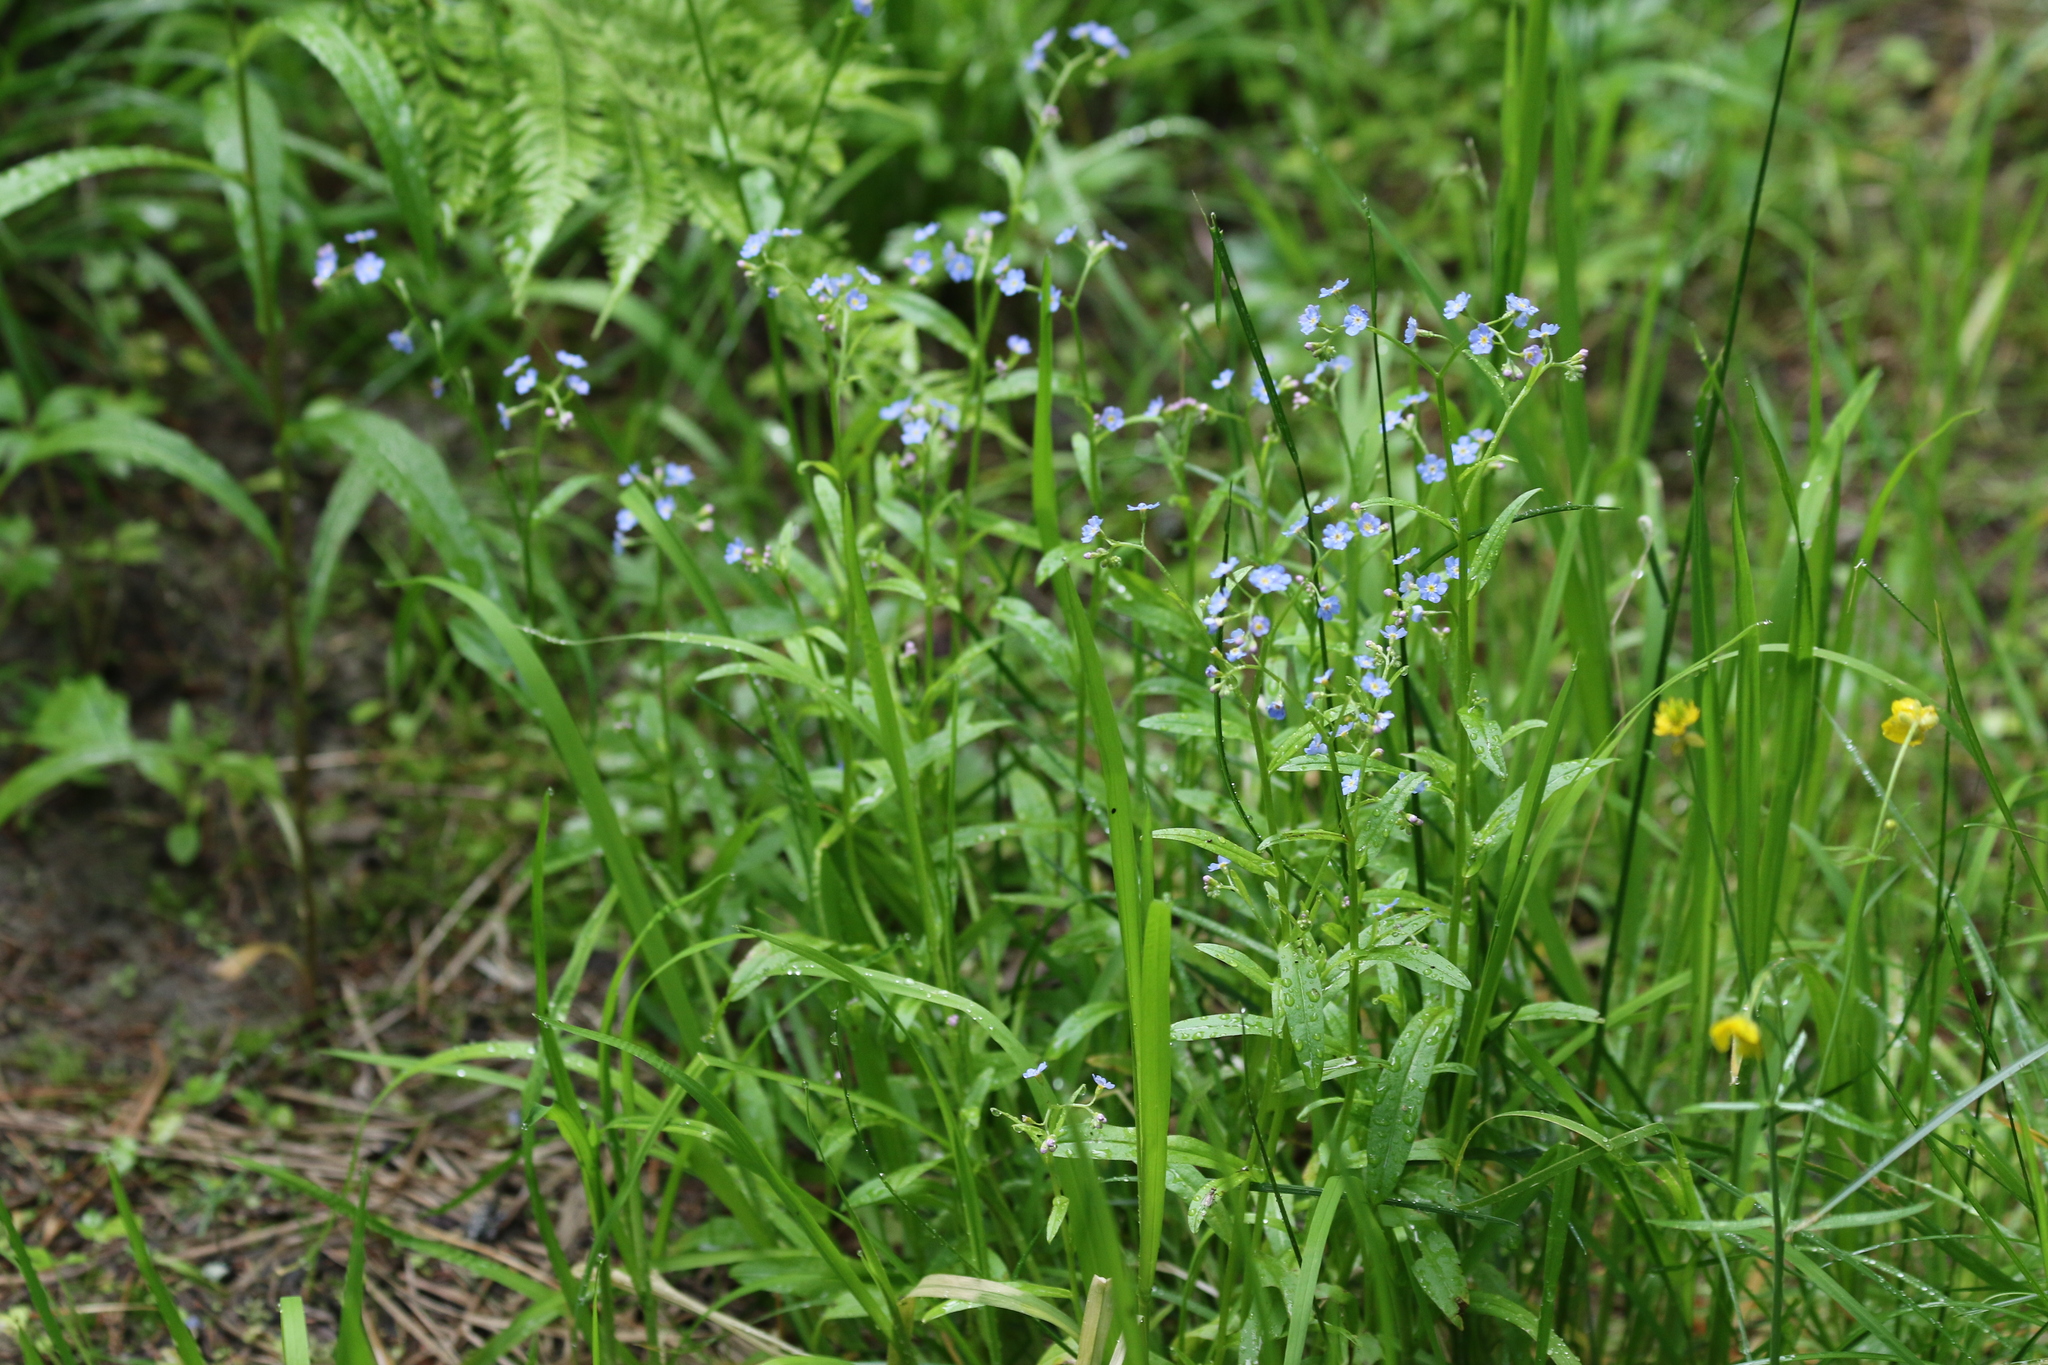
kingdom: Plantae
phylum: Tracheophyta
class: Magnoliopsida
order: Boraginales
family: Boraginaceae
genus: Myosotis
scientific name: Myosotis scorpioides
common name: Water forget-me-not
